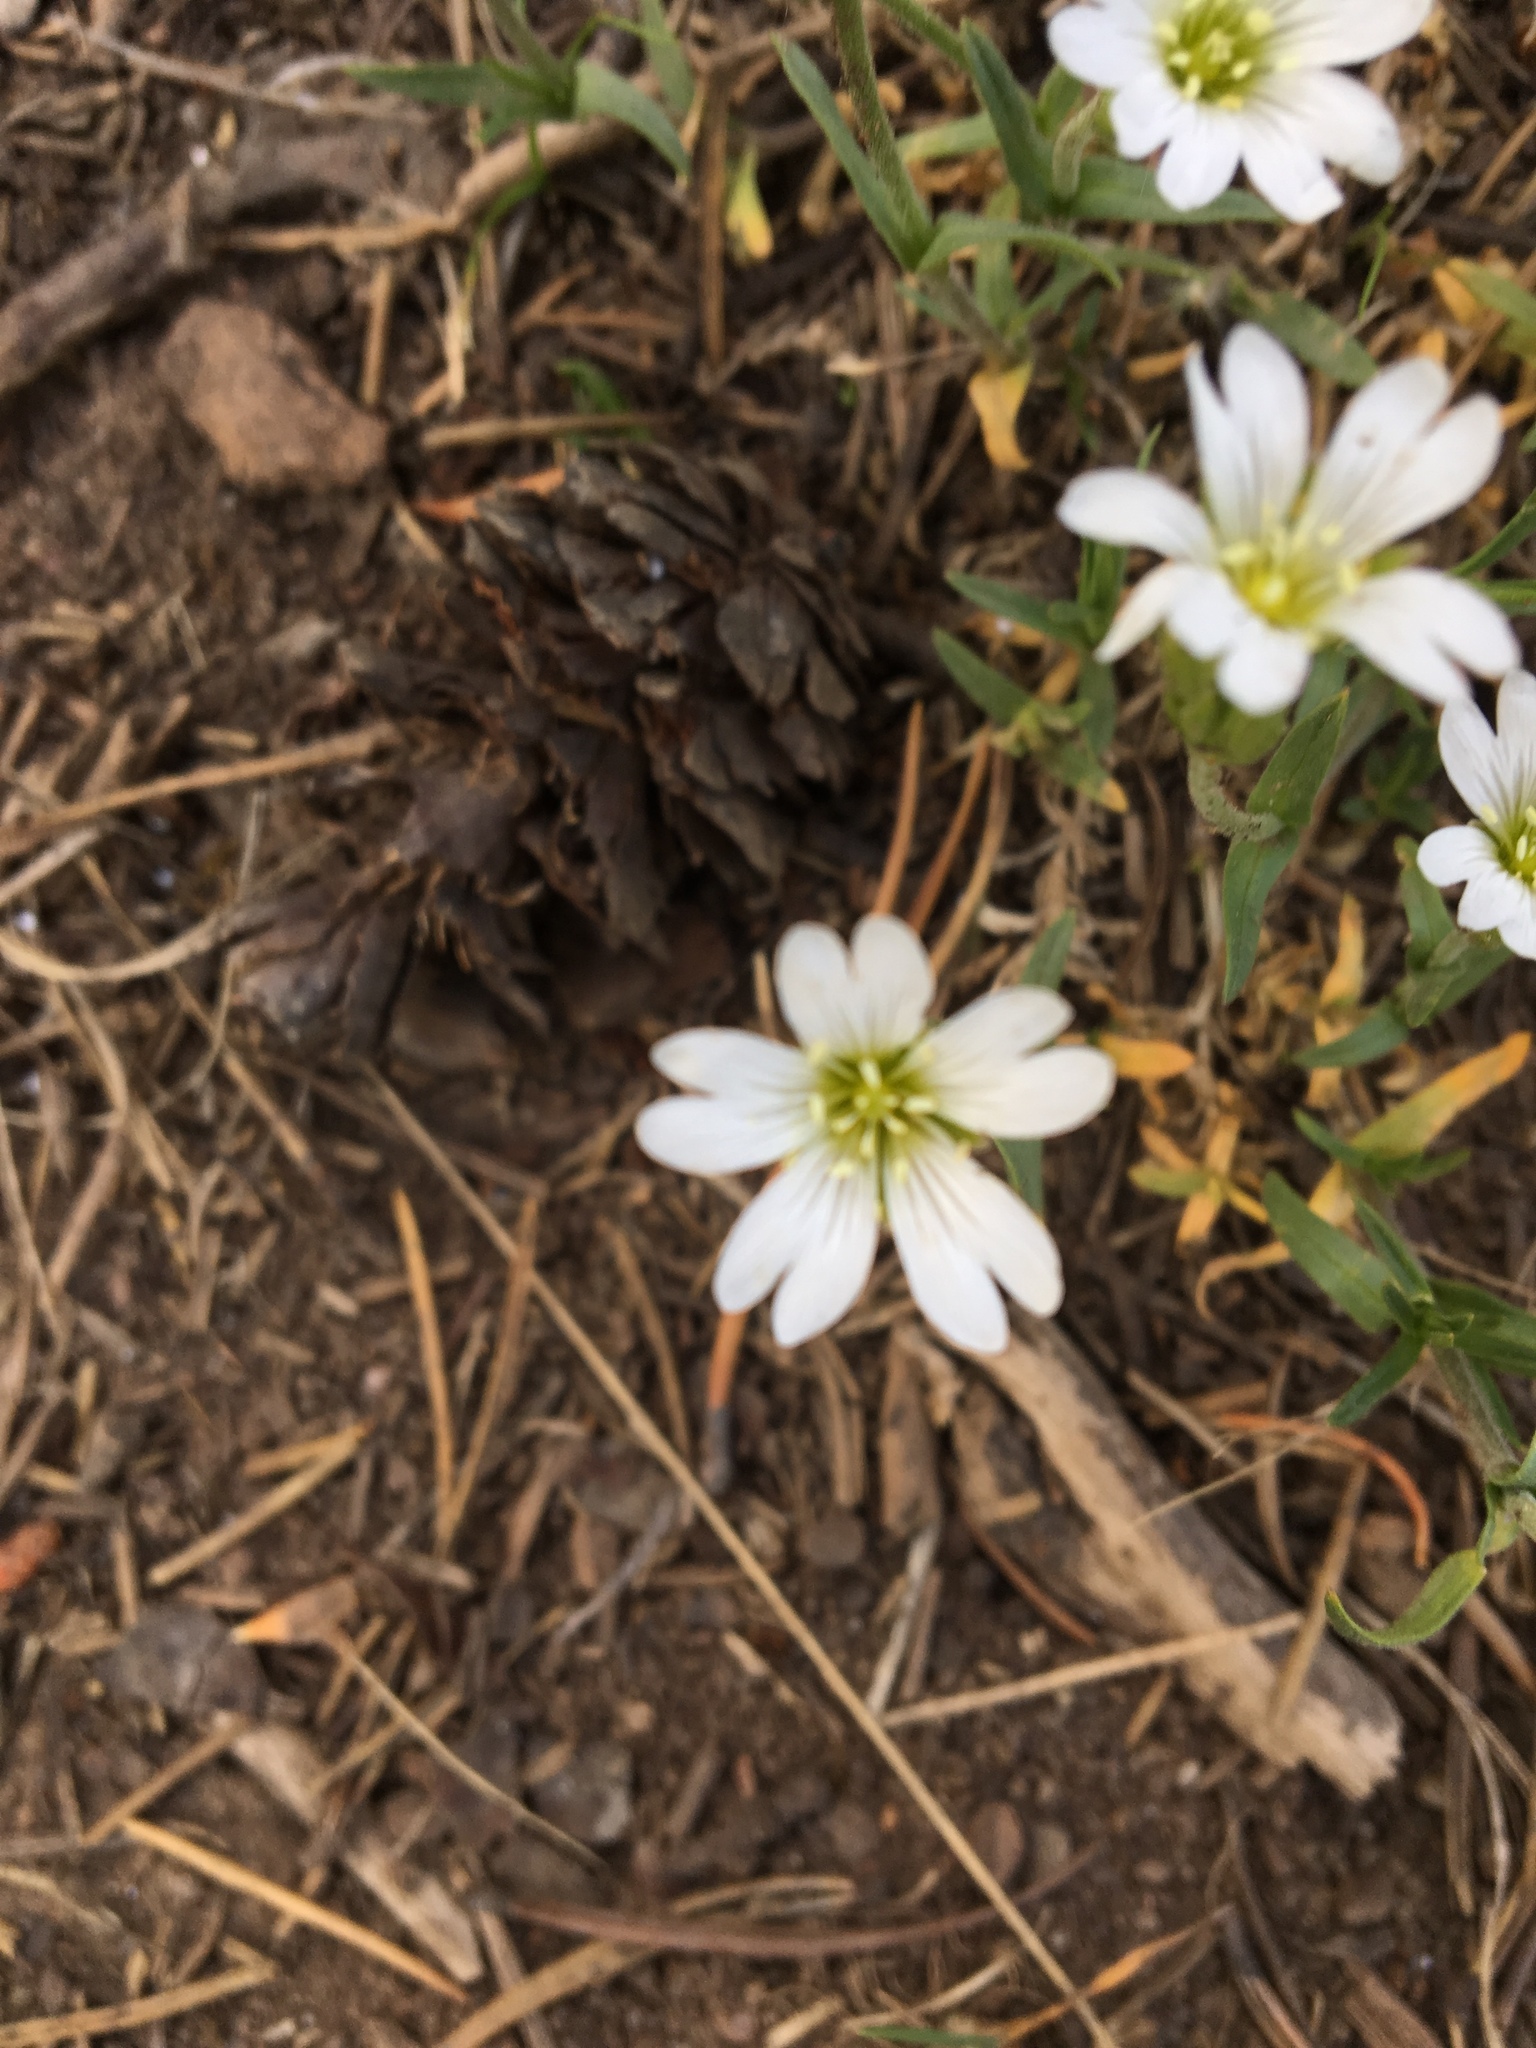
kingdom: Plantae
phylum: Tracheophyta
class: Magnoliopsida
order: Caryophyllales
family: Caryophyllaceae
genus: Cerastium
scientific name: Cerastium arvense
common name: Field mouse-ear
